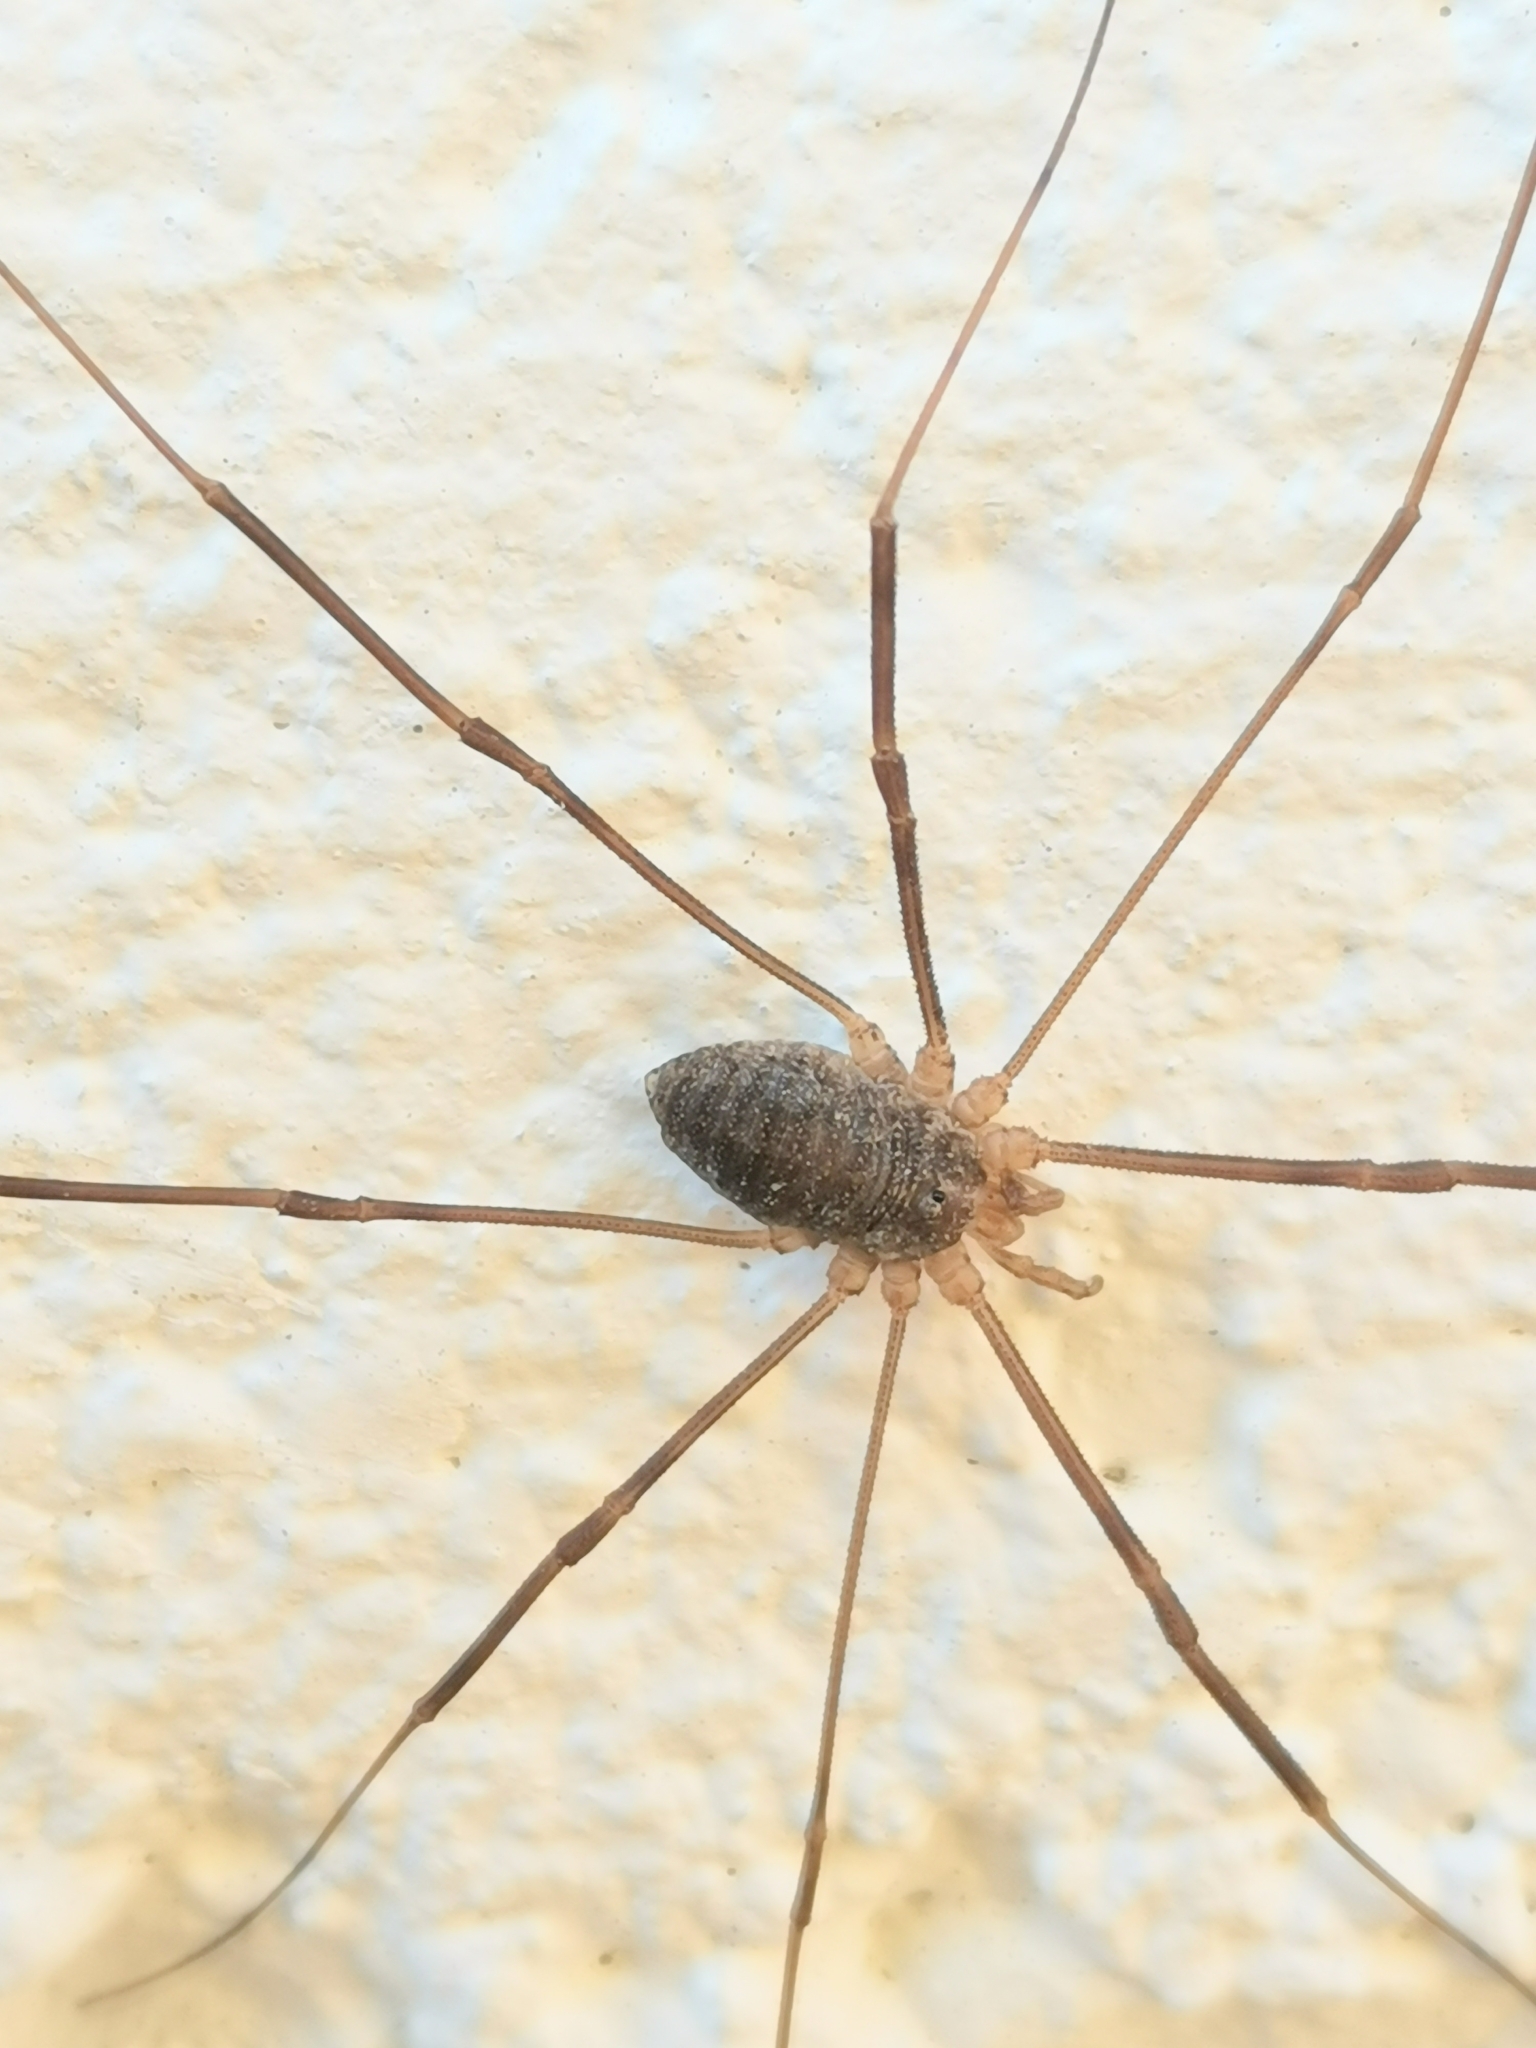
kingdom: Animalia
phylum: Arthropoda
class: Arachnida
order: Opiliones
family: Phalangiidae
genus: Opilio
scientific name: Opilio parietinus
